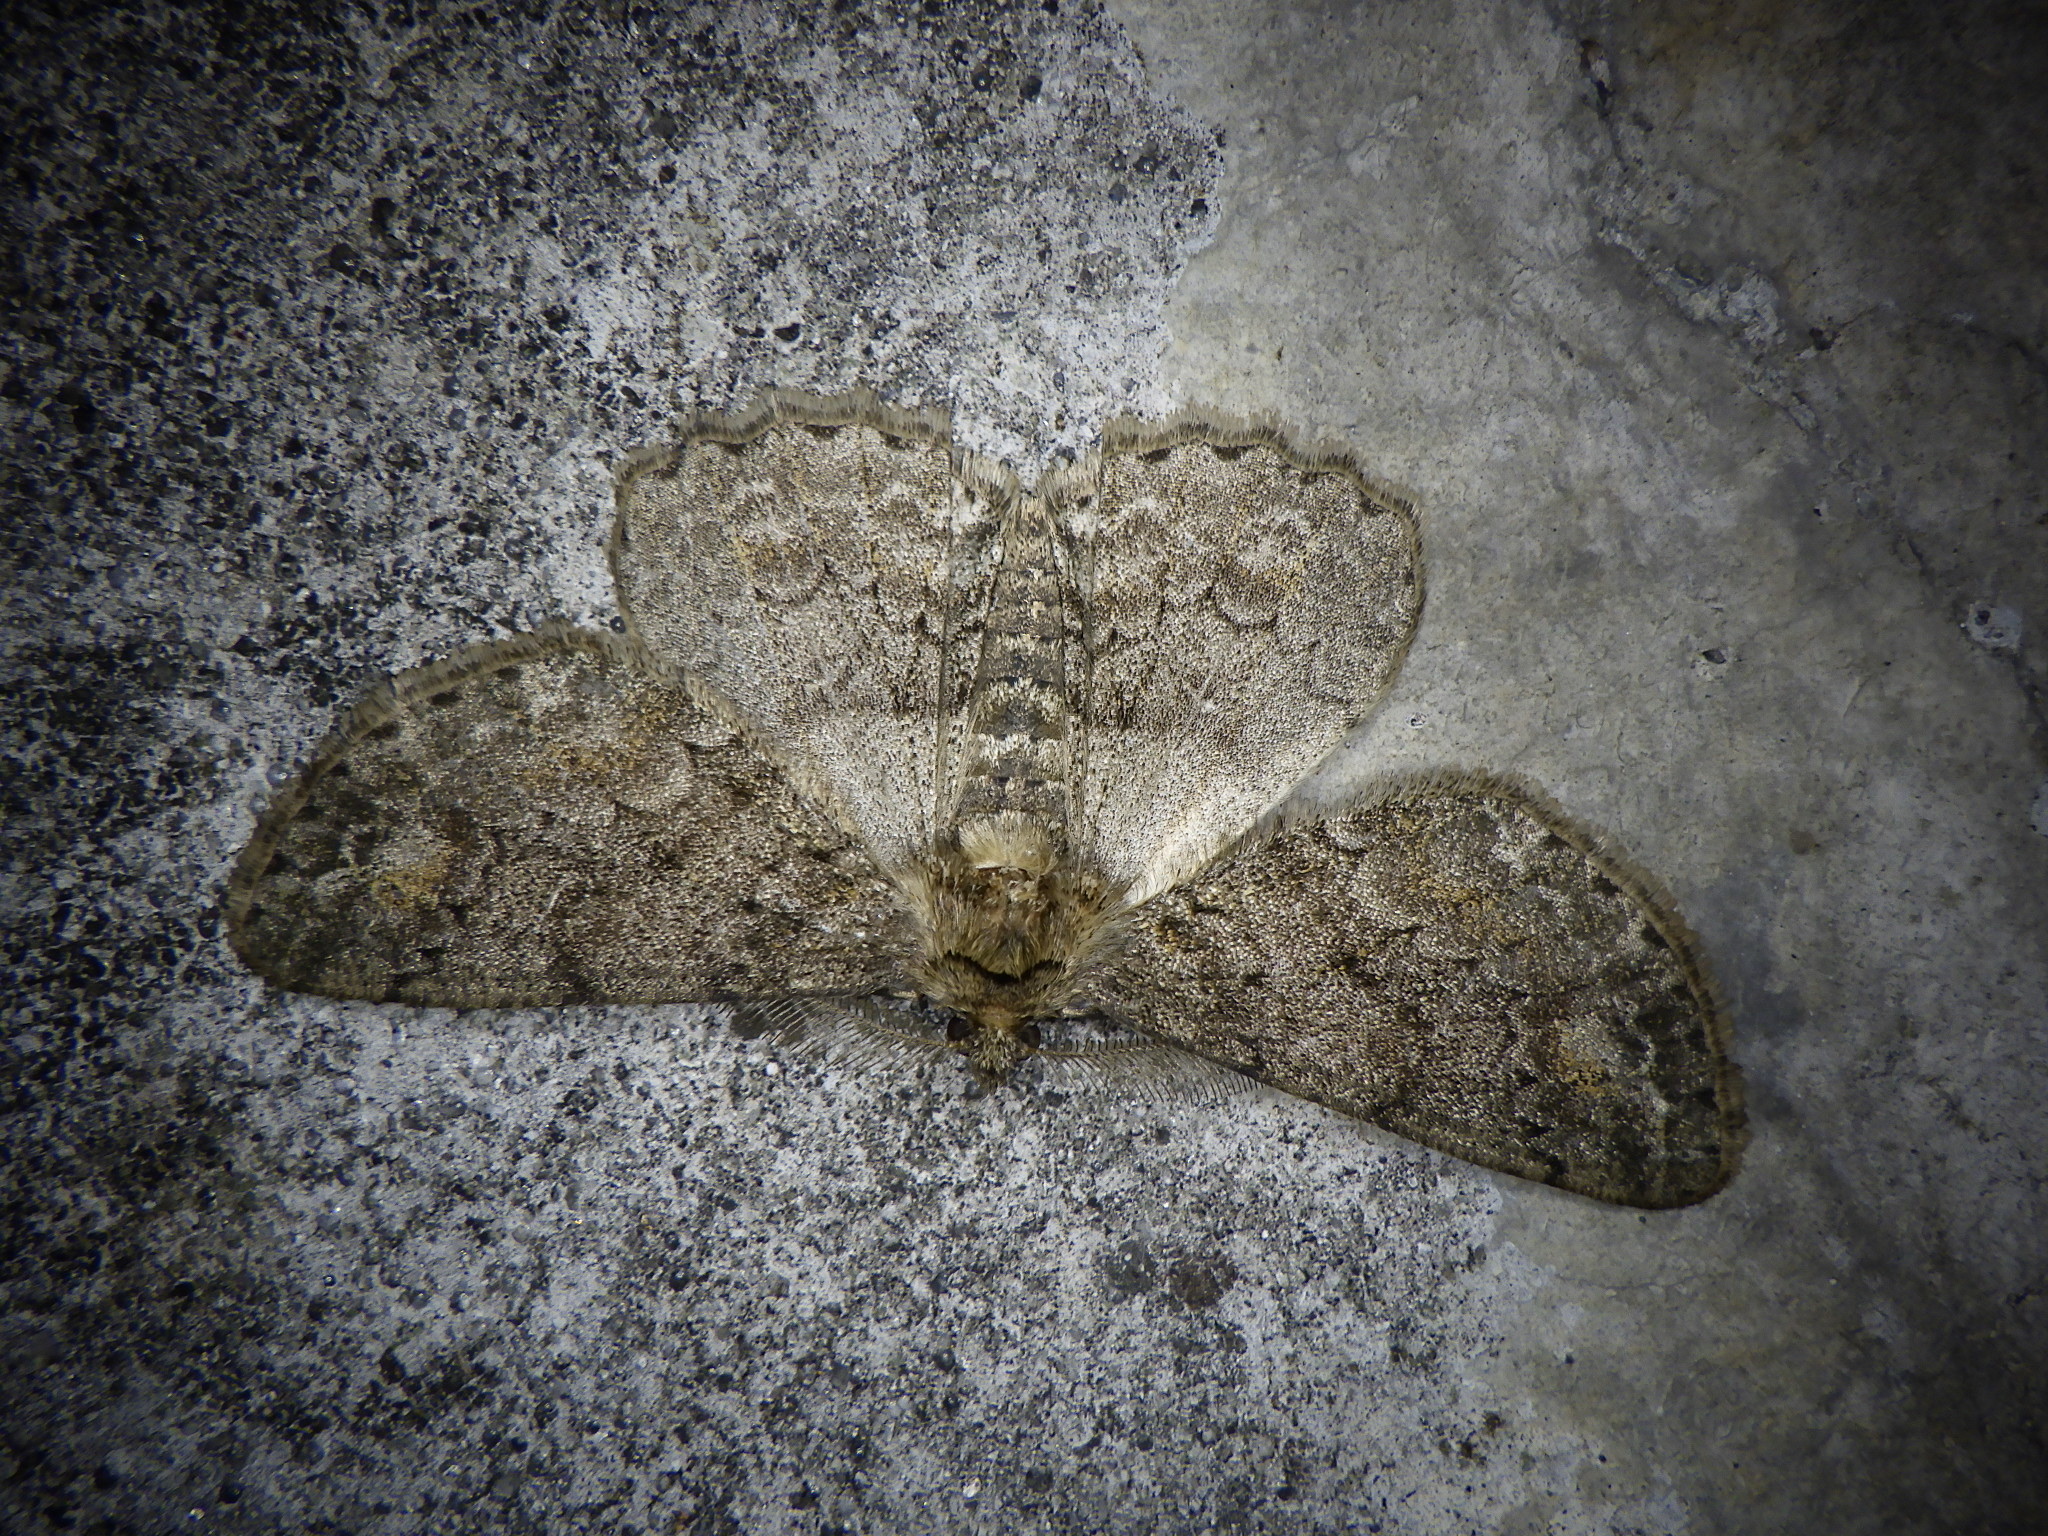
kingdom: Animalia
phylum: Arthropoda
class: Insecta
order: Lepidoptera
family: Geometridae
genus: Cleora
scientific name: Cleora leucophaea
